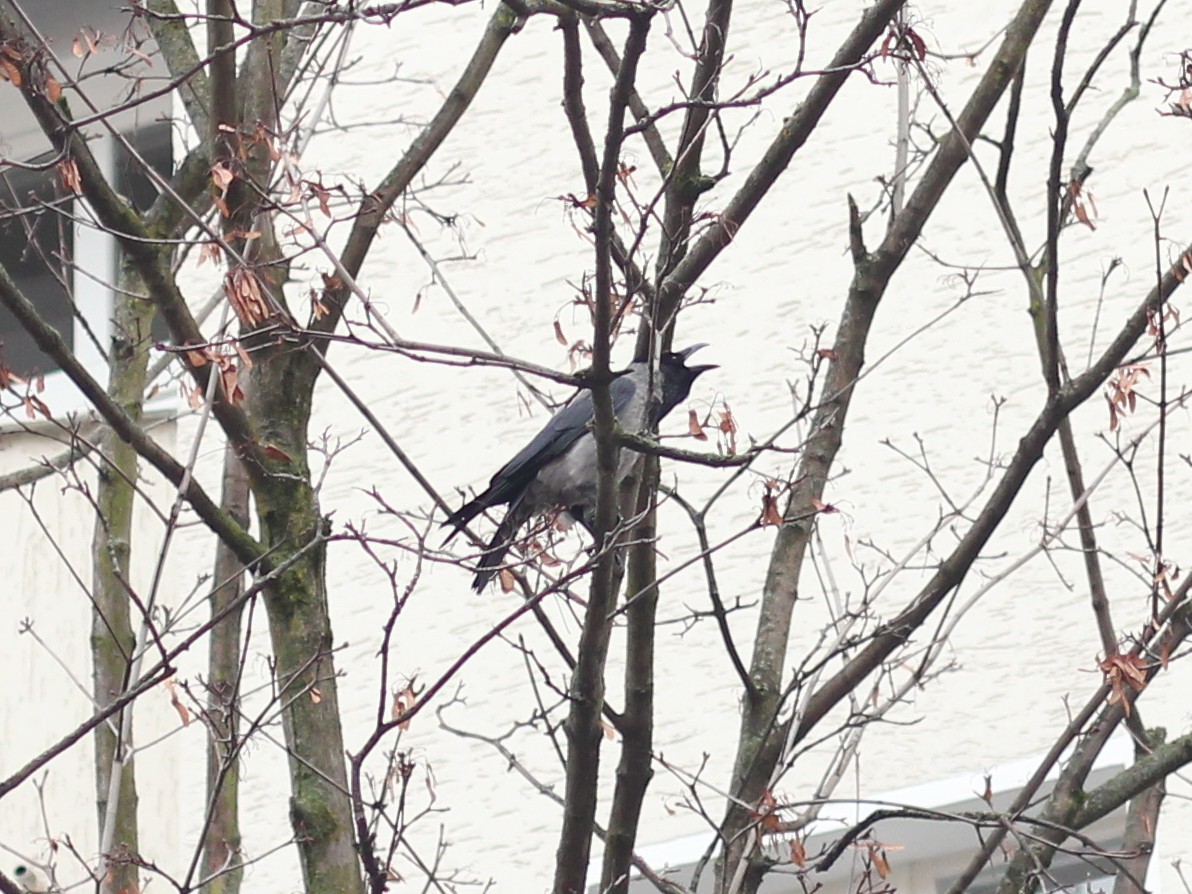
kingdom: Animalia
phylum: Chordata
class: Aves
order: Passeriformes
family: Corvidae
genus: Corvus
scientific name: Corvus cornix
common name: Hooded crow
